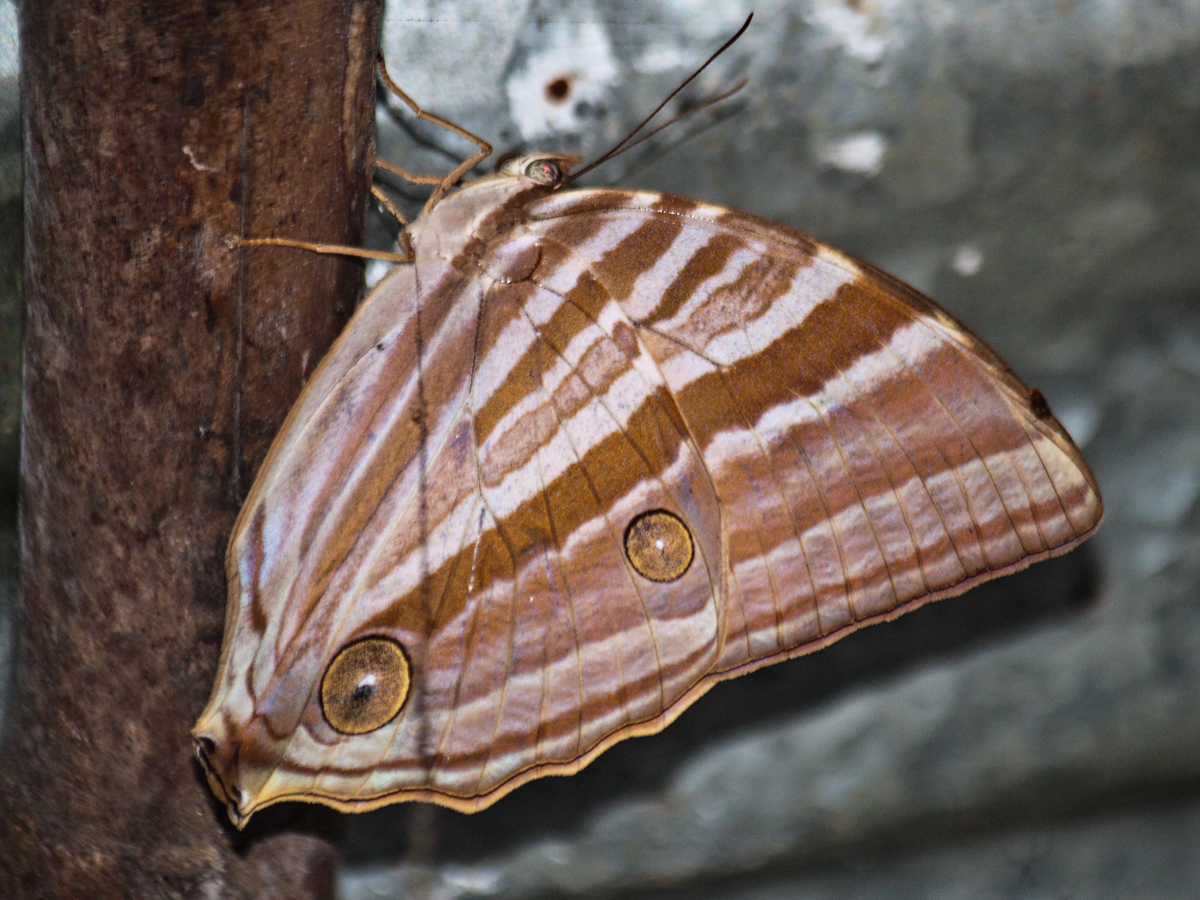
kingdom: Animalia
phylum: Arthropoda
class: Insecta
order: Lepidoptera
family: Nymphalidae
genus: Amathusia
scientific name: Amathusia phidippus
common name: Palm king
